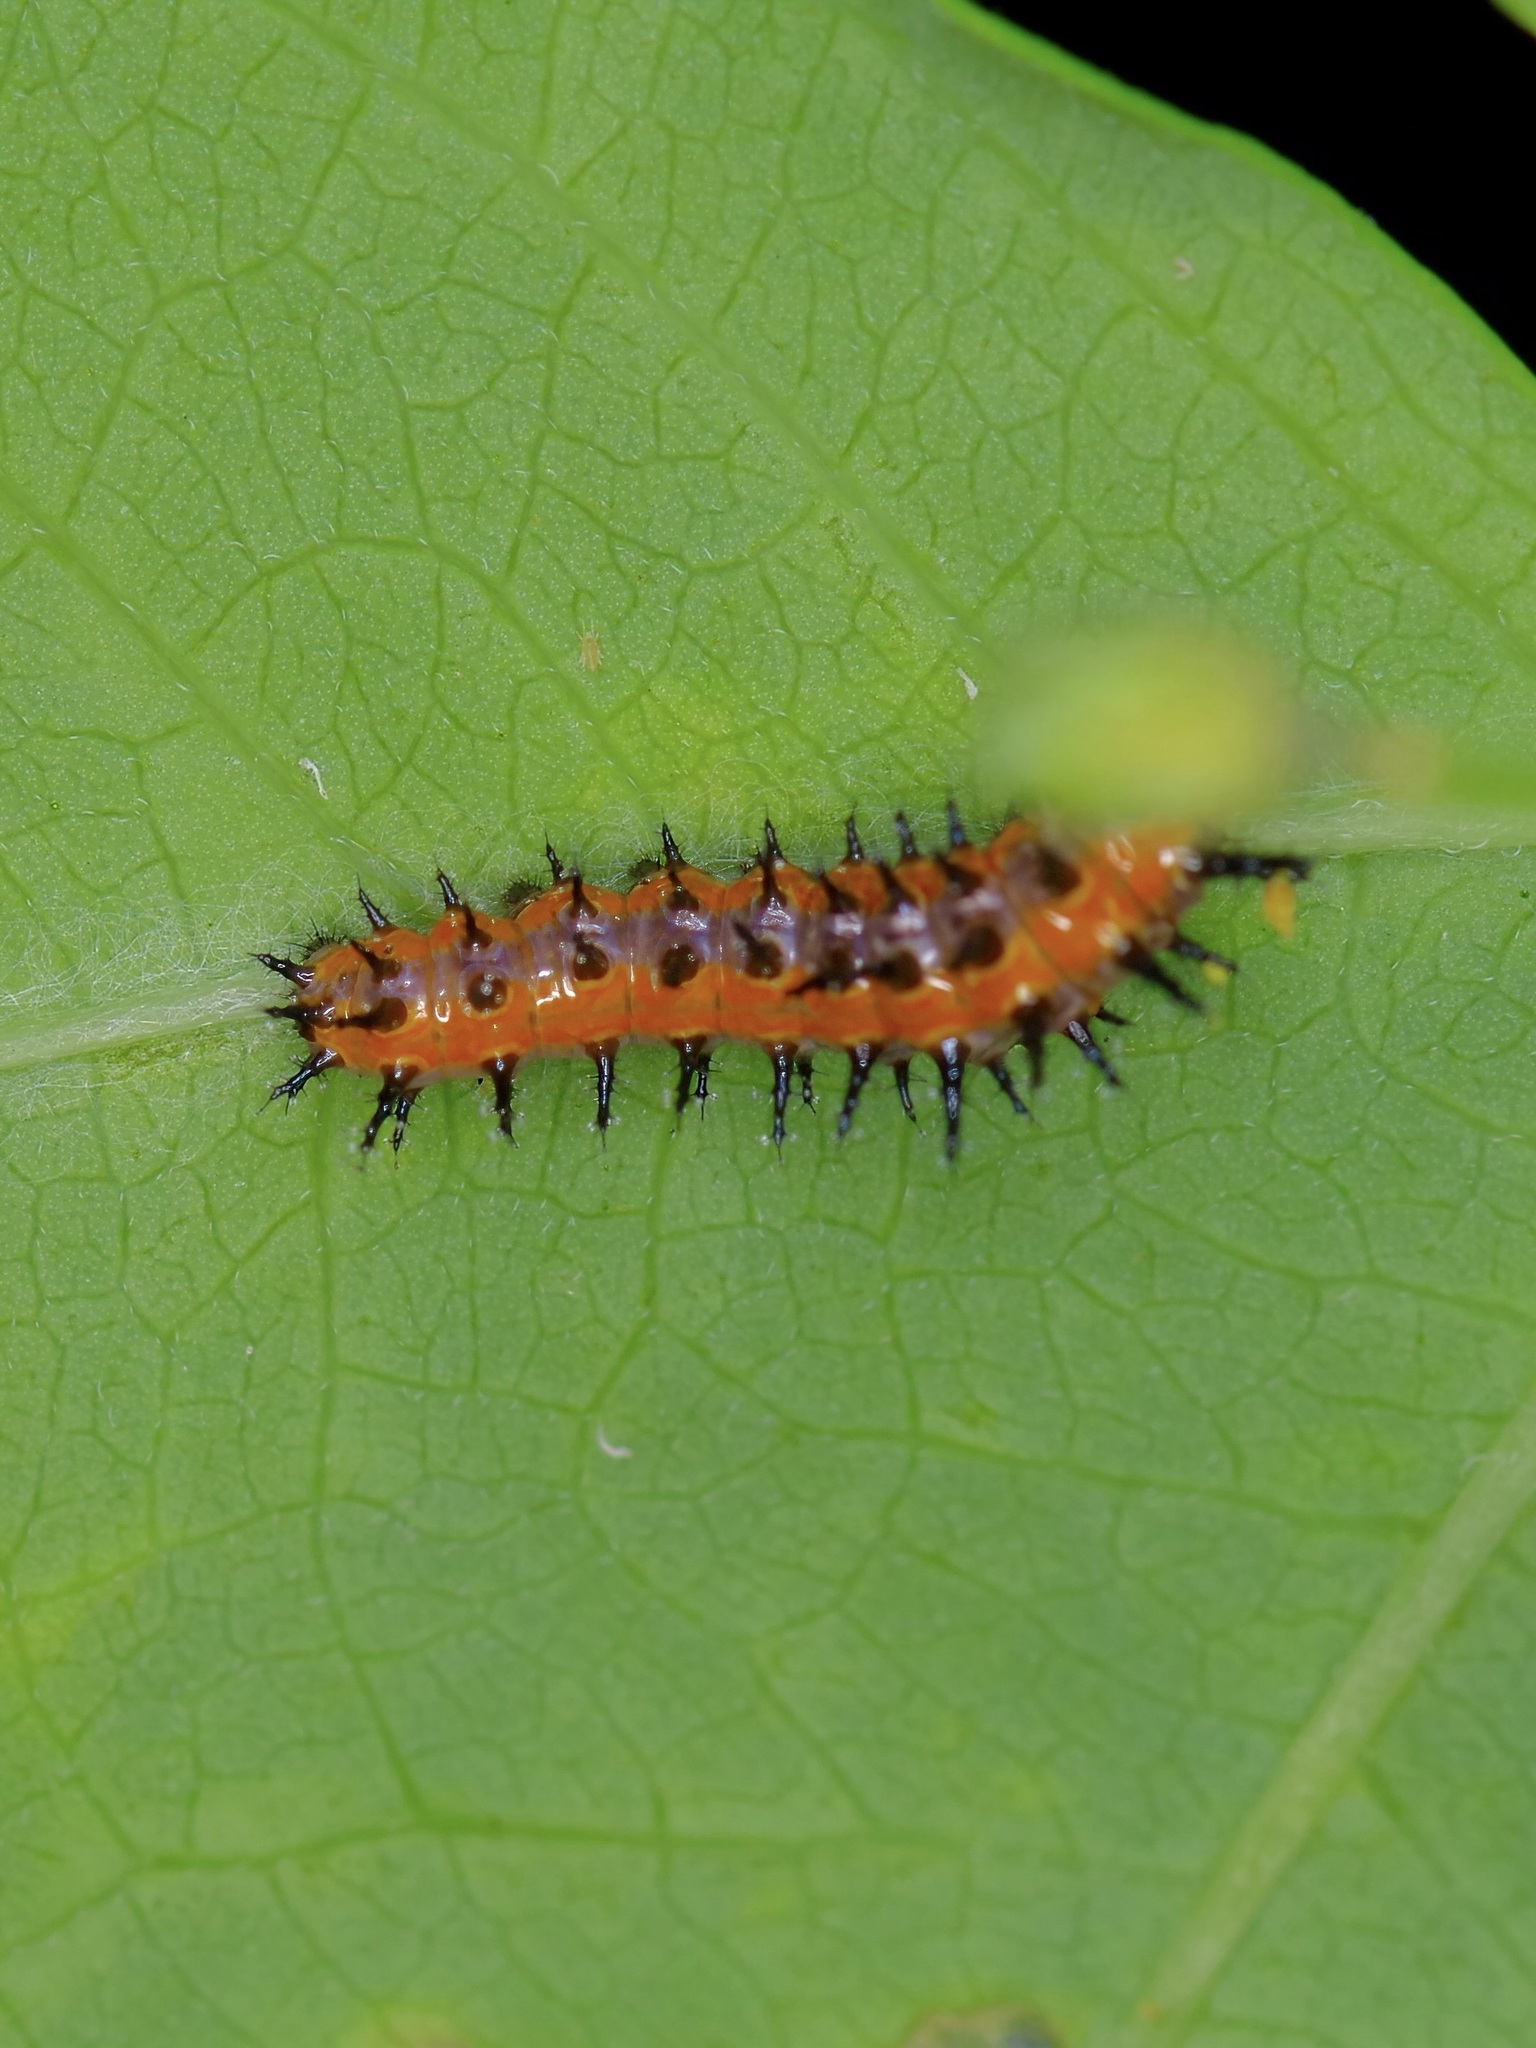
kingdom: Animalia
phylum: Arthropoda
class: Insecta
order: Lepidoptera
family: Nymphalidae
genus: Dione
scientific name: Dione vanillae
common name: Gulf fritillary
